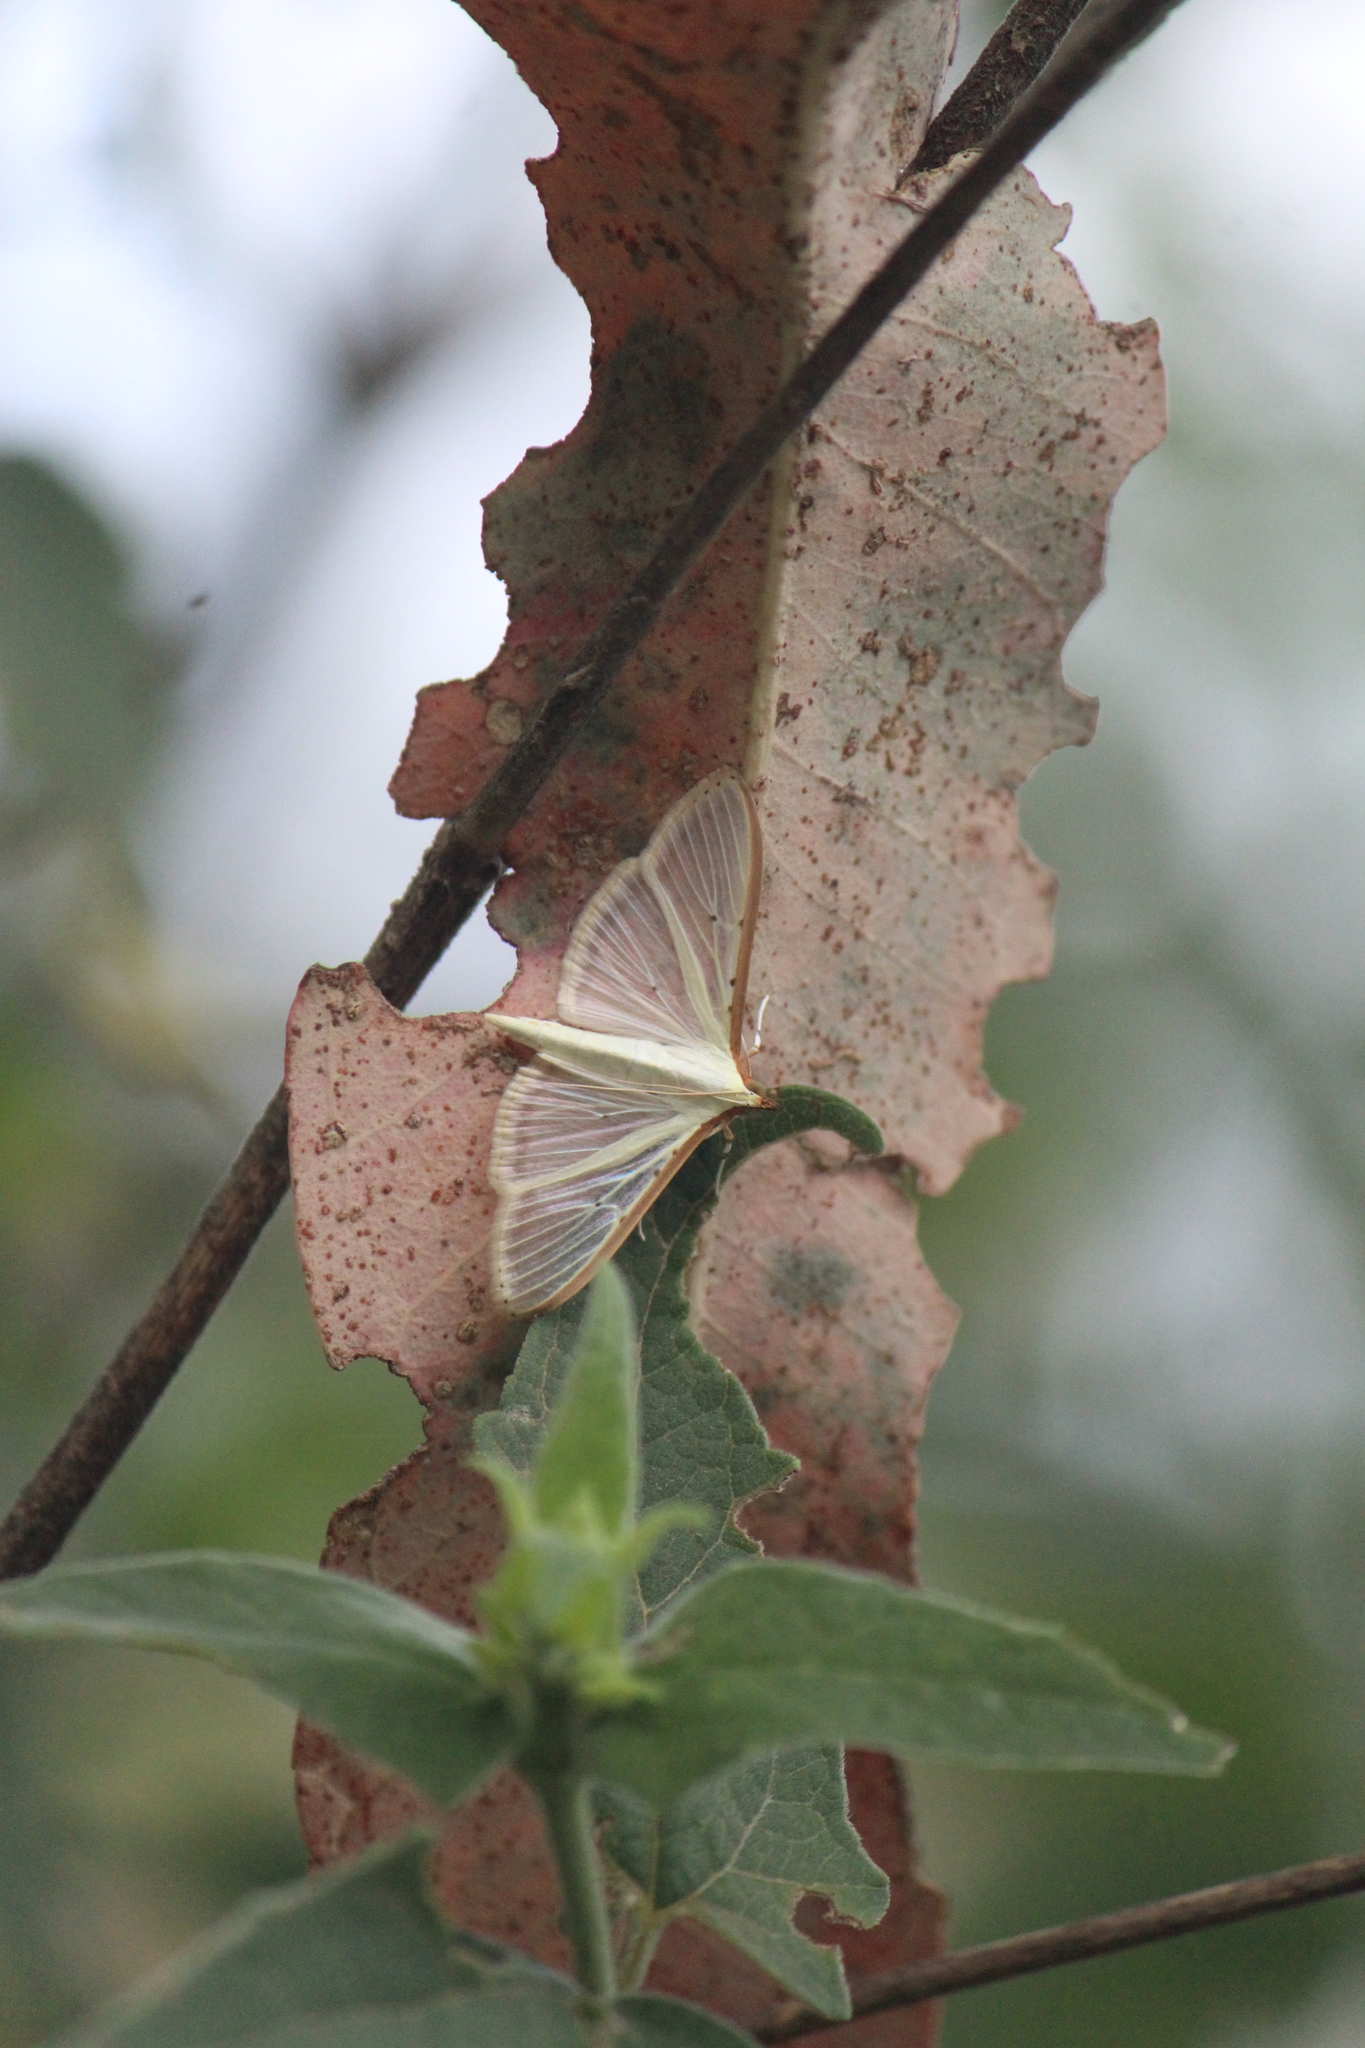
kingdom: Animalia
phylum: Arthropoda
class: Insecta
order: Lepidoptera
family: Crambidae
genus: Palpita
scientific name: Palpita quadristigmalis
